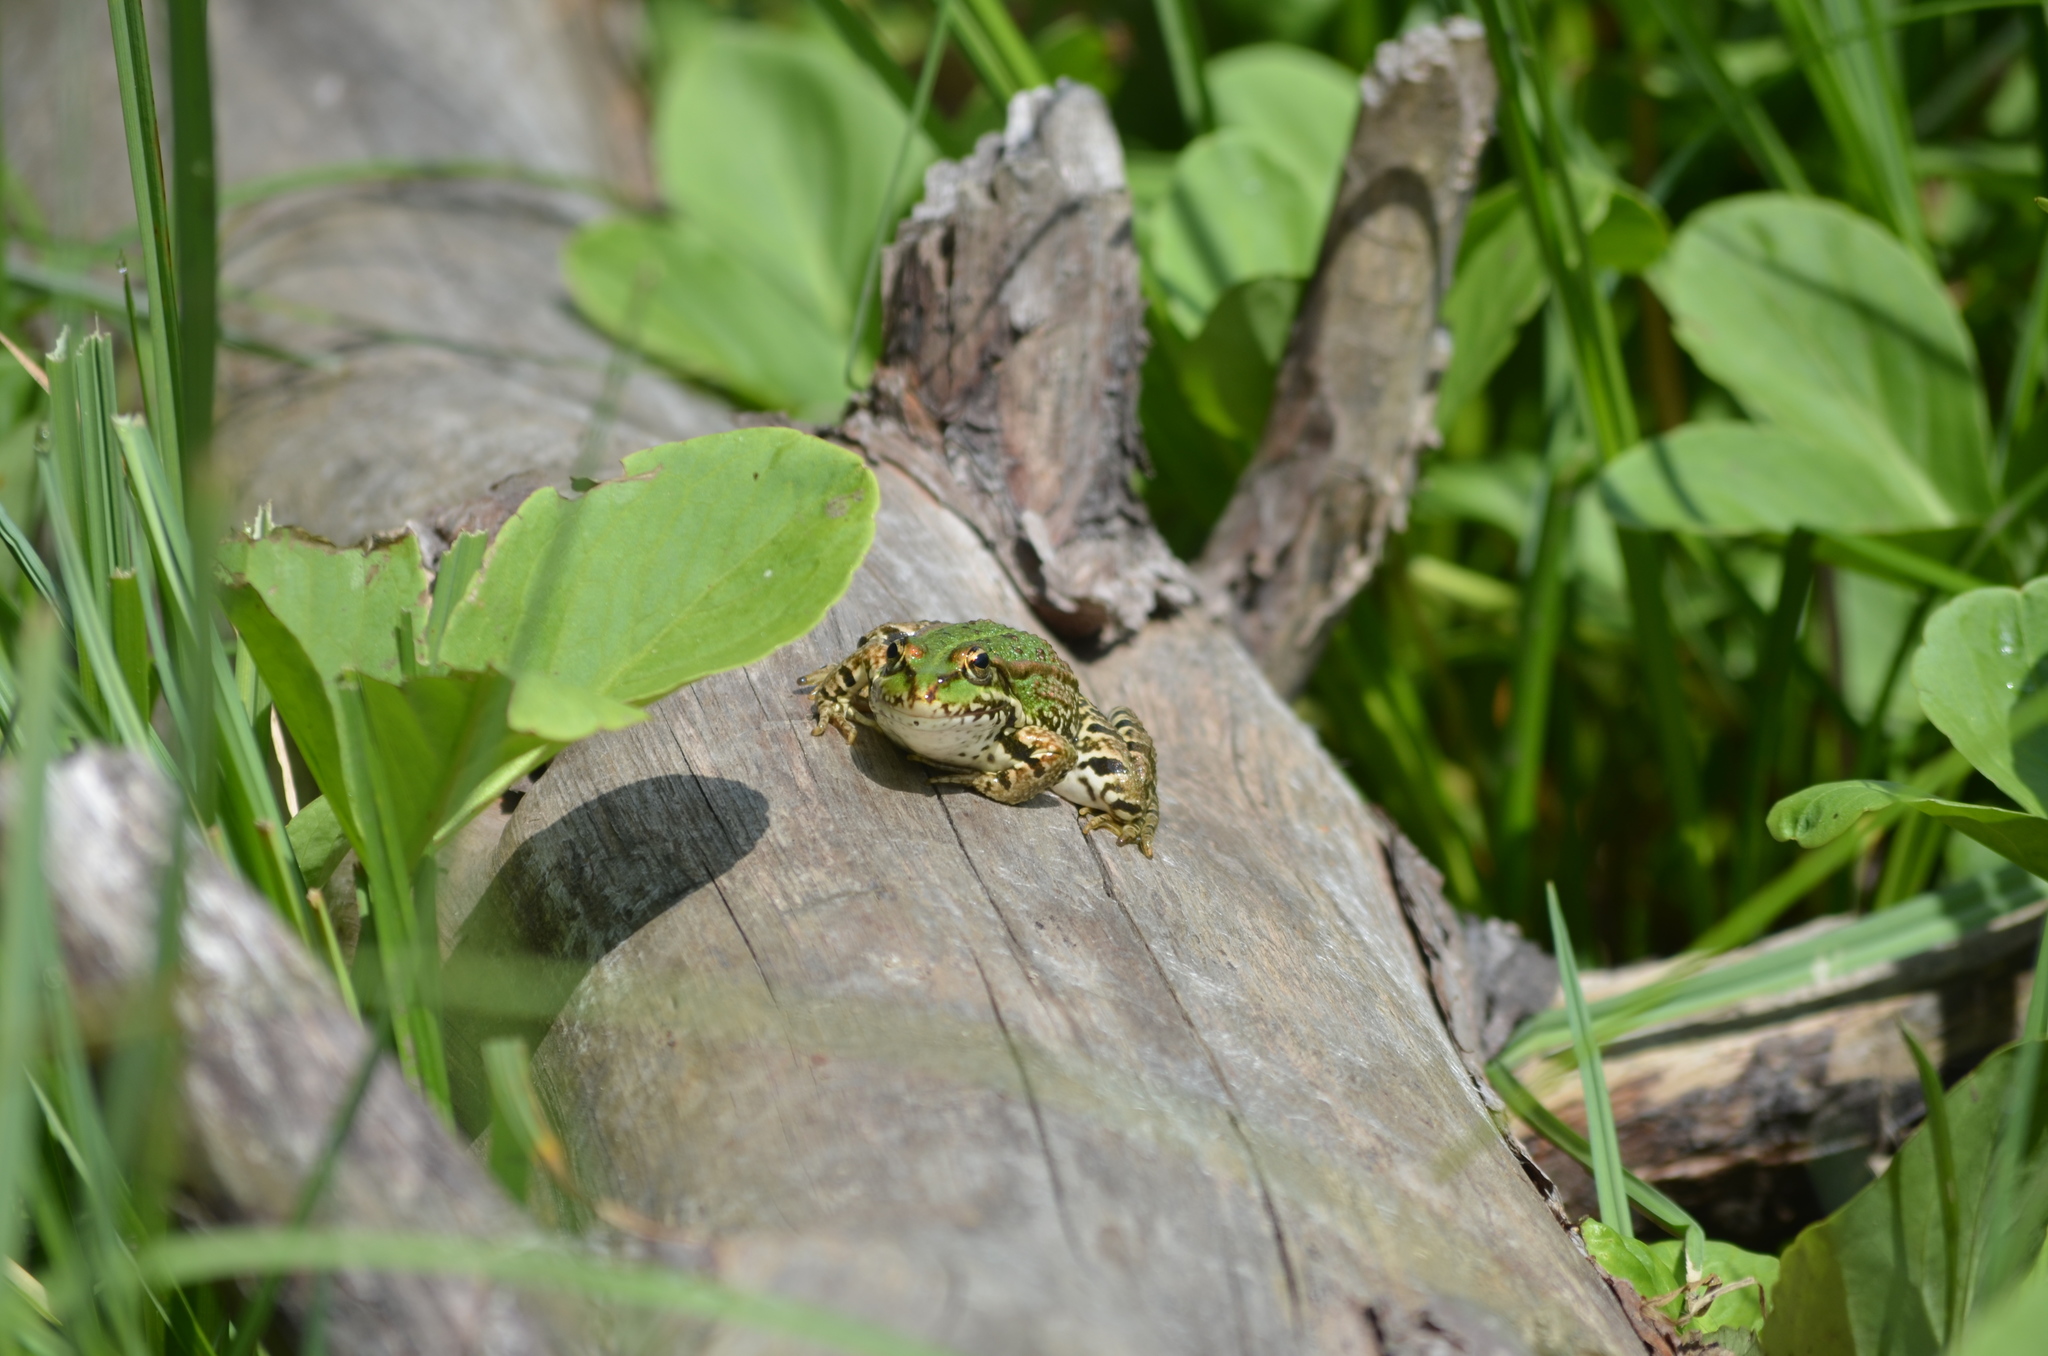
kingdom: Animalia
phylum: Chordata
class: Amphibia
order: Anura
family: Ranidae
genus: Pelophylax
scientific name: Pelophylax perezi
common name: Perez's frog
